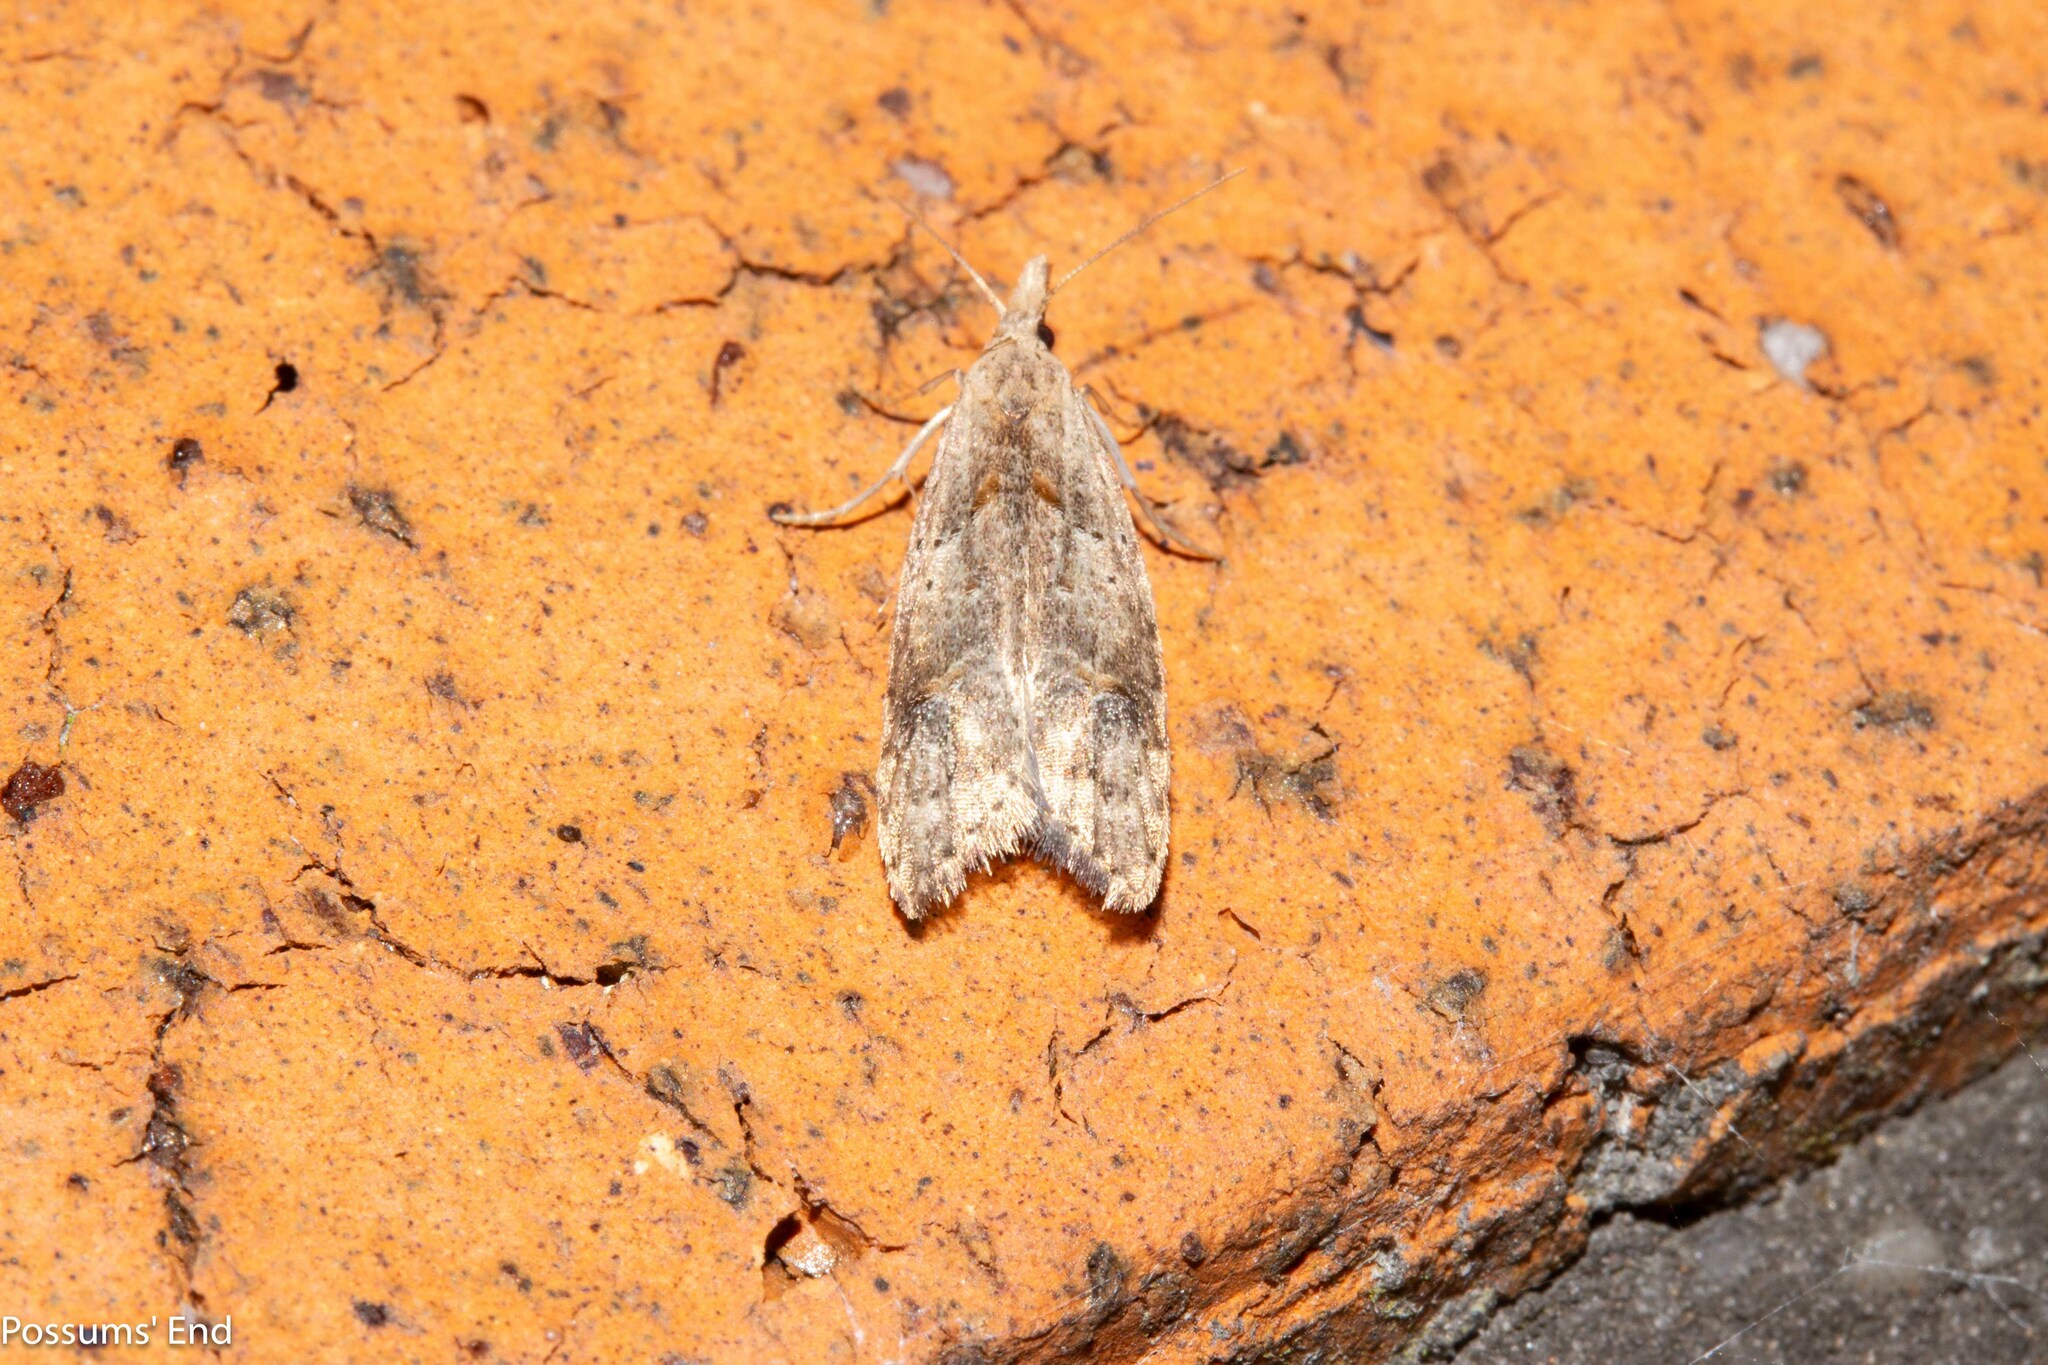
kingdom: Animalia
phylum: Arthropoda
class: Insecta
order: Lepidoptera
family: Carposinidae
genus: Carposina
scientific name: Carposina rubophaga
